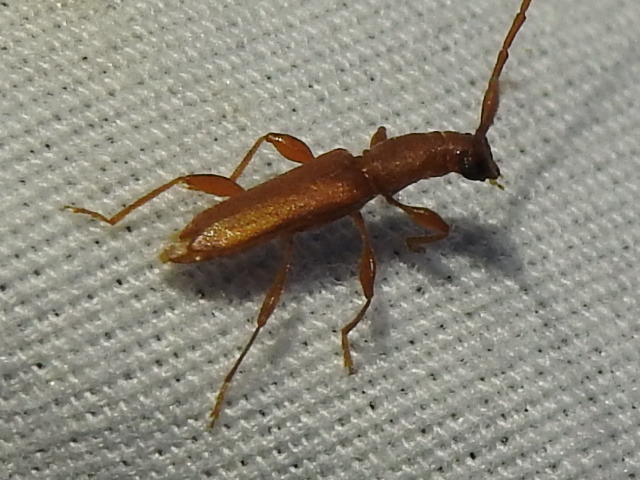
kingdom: Animalia
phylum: Arthropoda
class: Insecta
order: Coleoptera
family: Cerambycidae
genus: Hypexilis
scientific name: Hypexilis pallida
